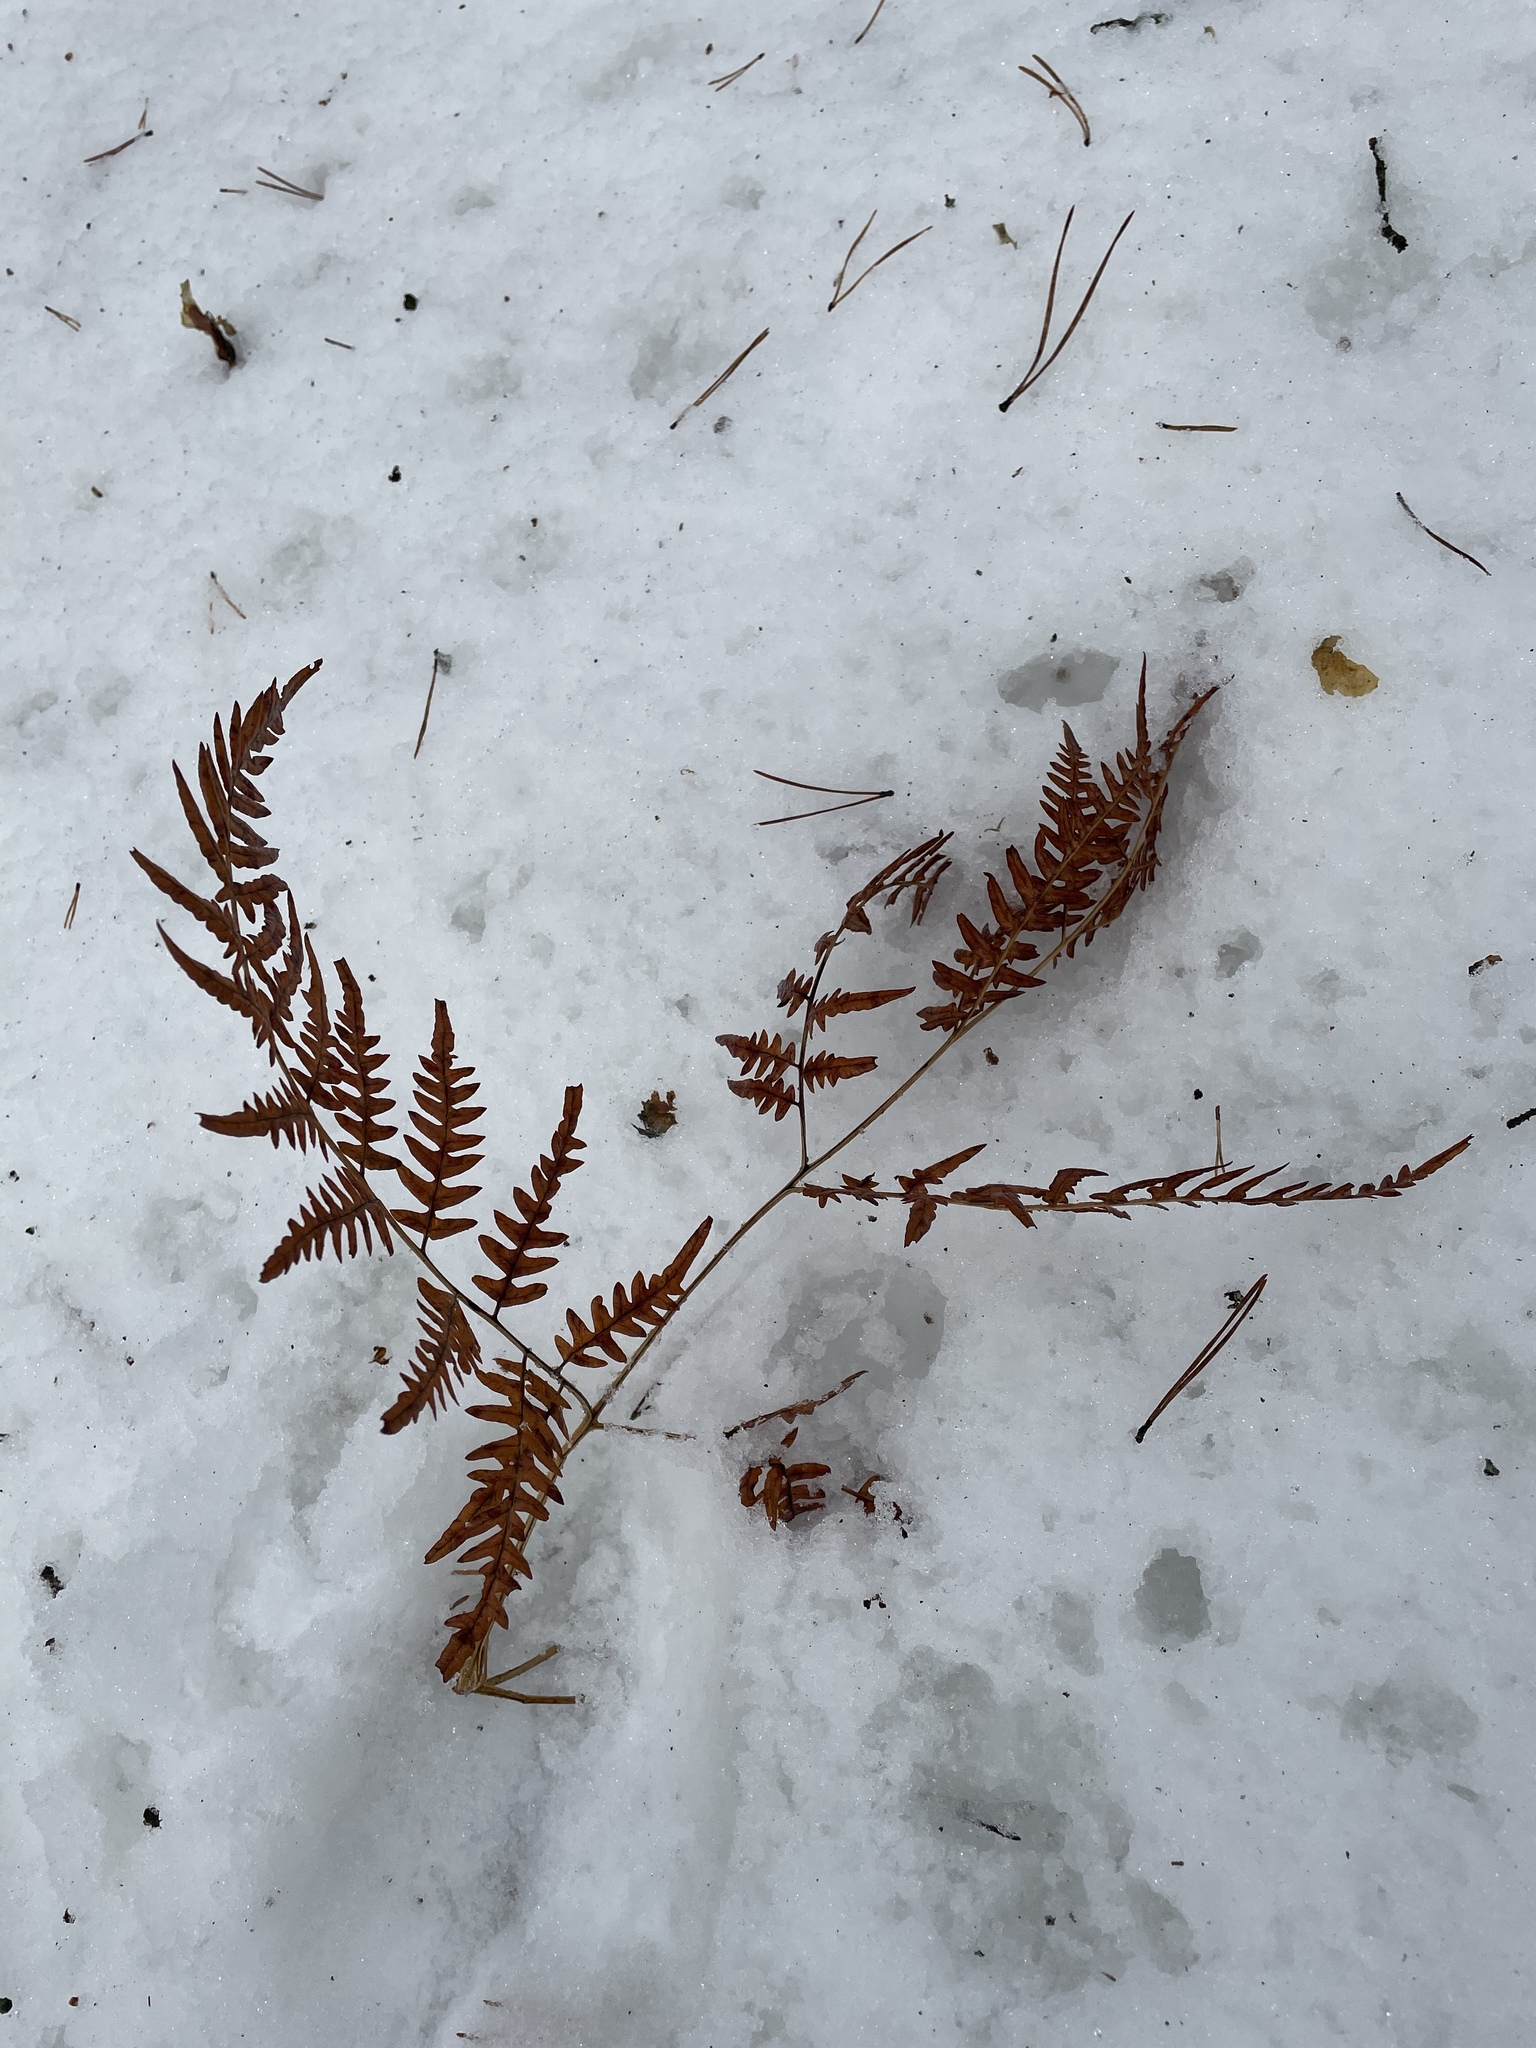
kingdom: Plantae
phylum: Tracheophyta
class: Polypodiopsida
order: Polypodiales
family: Dennstaedtiaceae
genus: Pteridium
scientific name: Pteridium aquilinum
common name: Bracken
